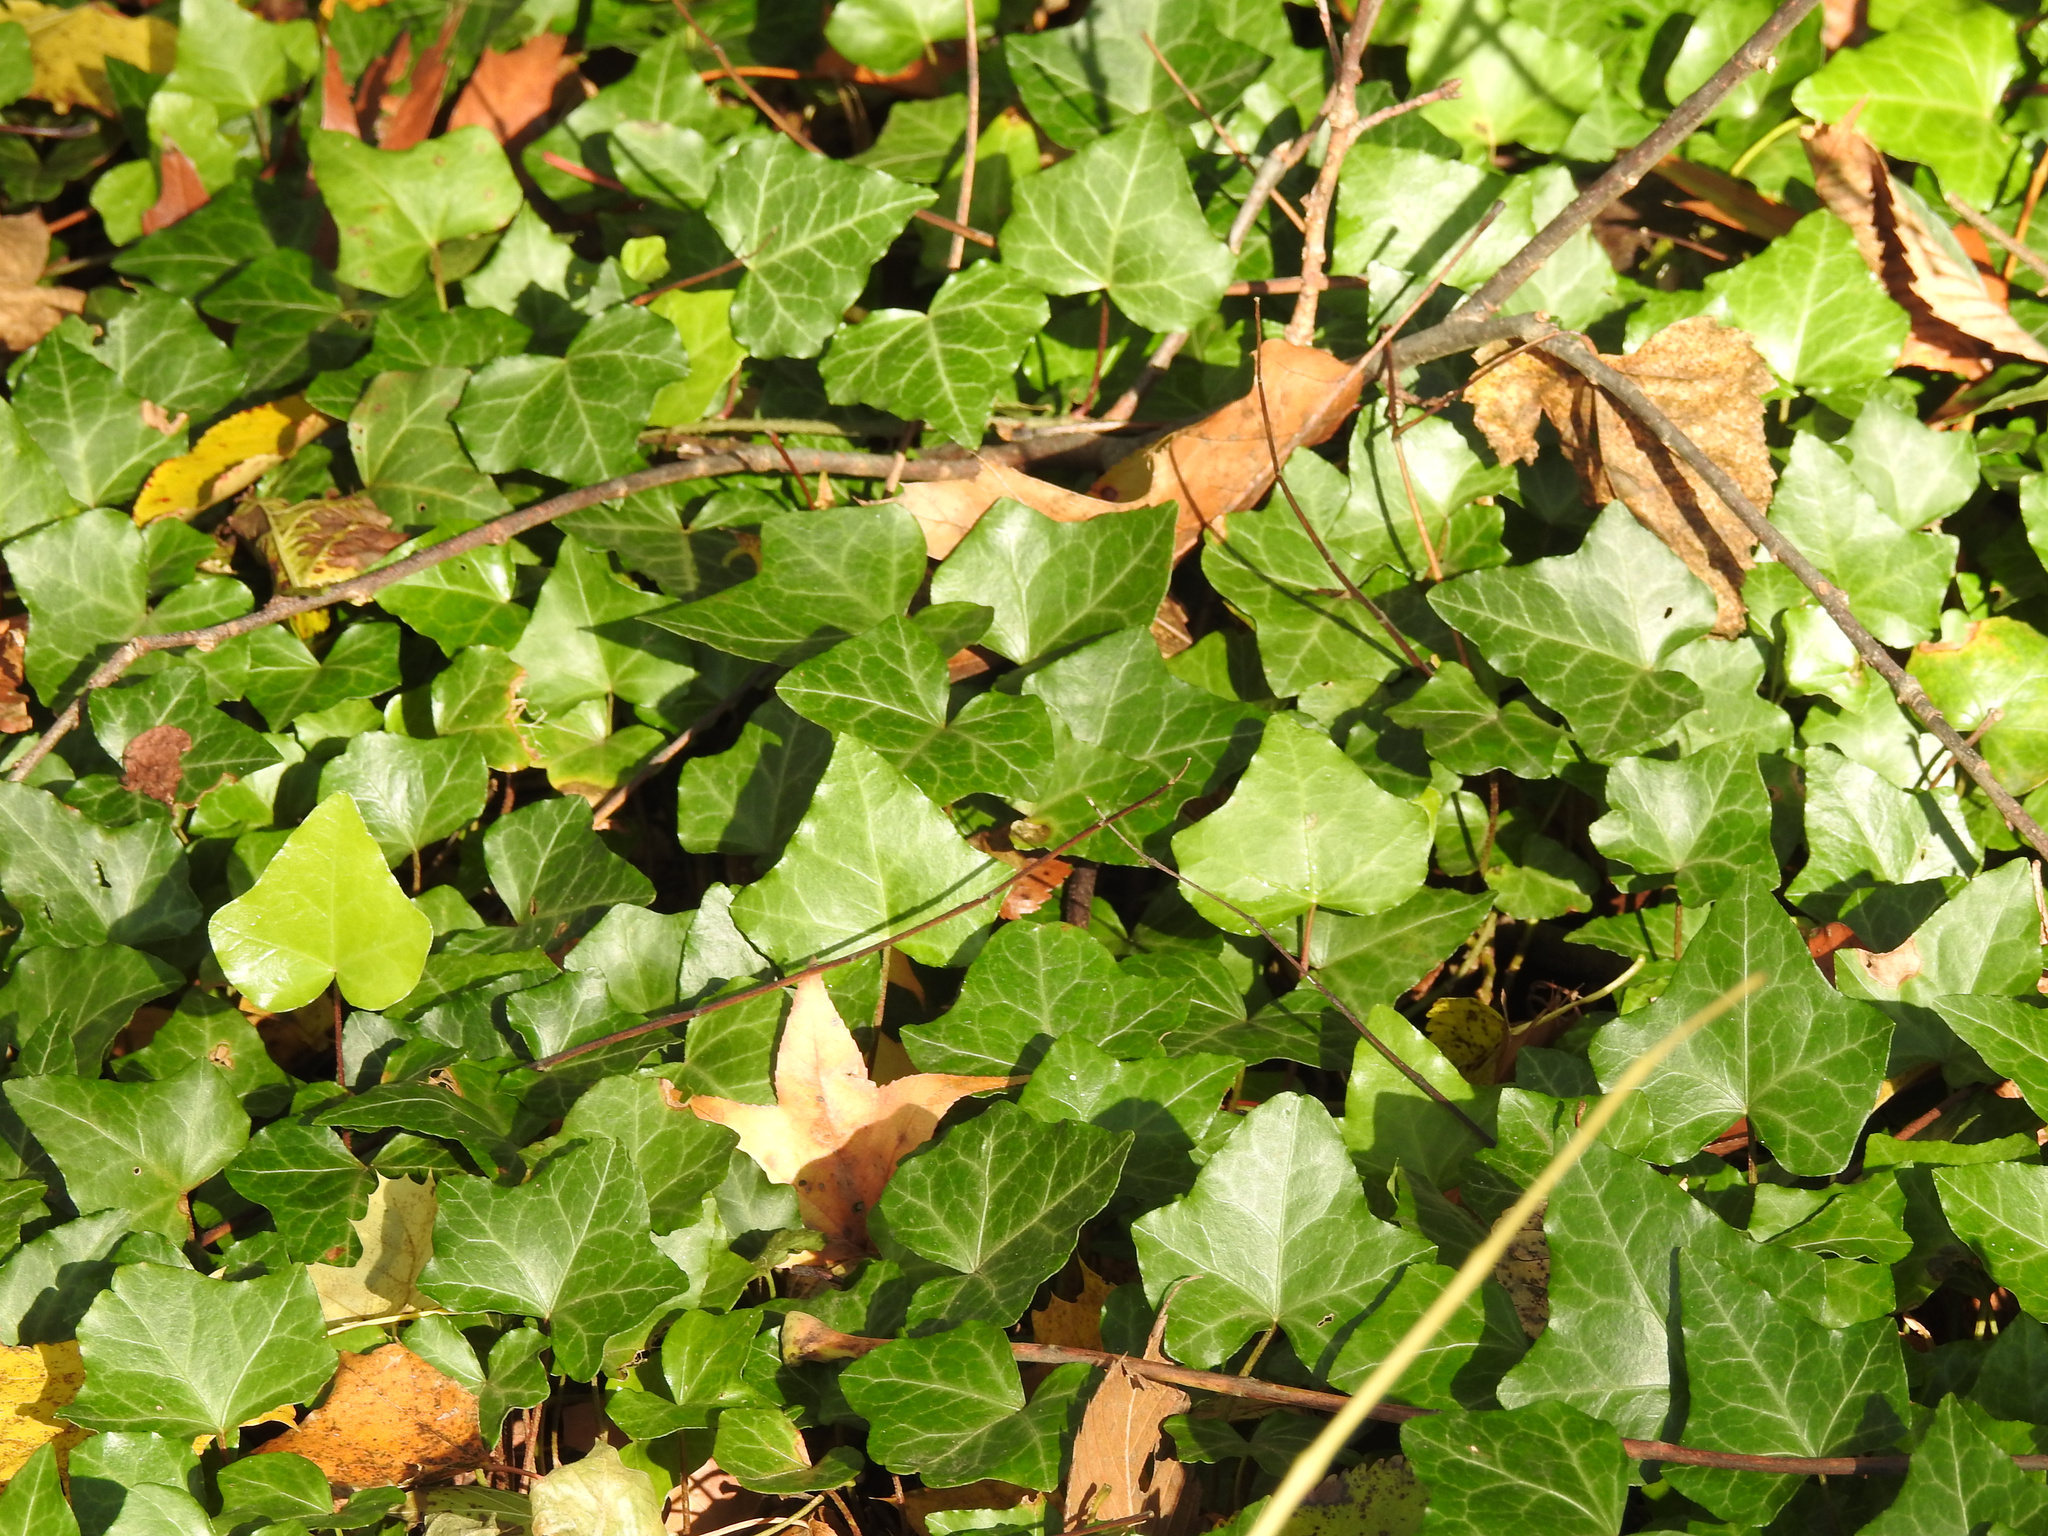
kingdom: Plantae
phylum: Tracheophyta
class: Magnoliopsida
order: Apiales
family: Araliaceae
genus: Hedera
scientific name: Hedera helix
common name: Ivy
